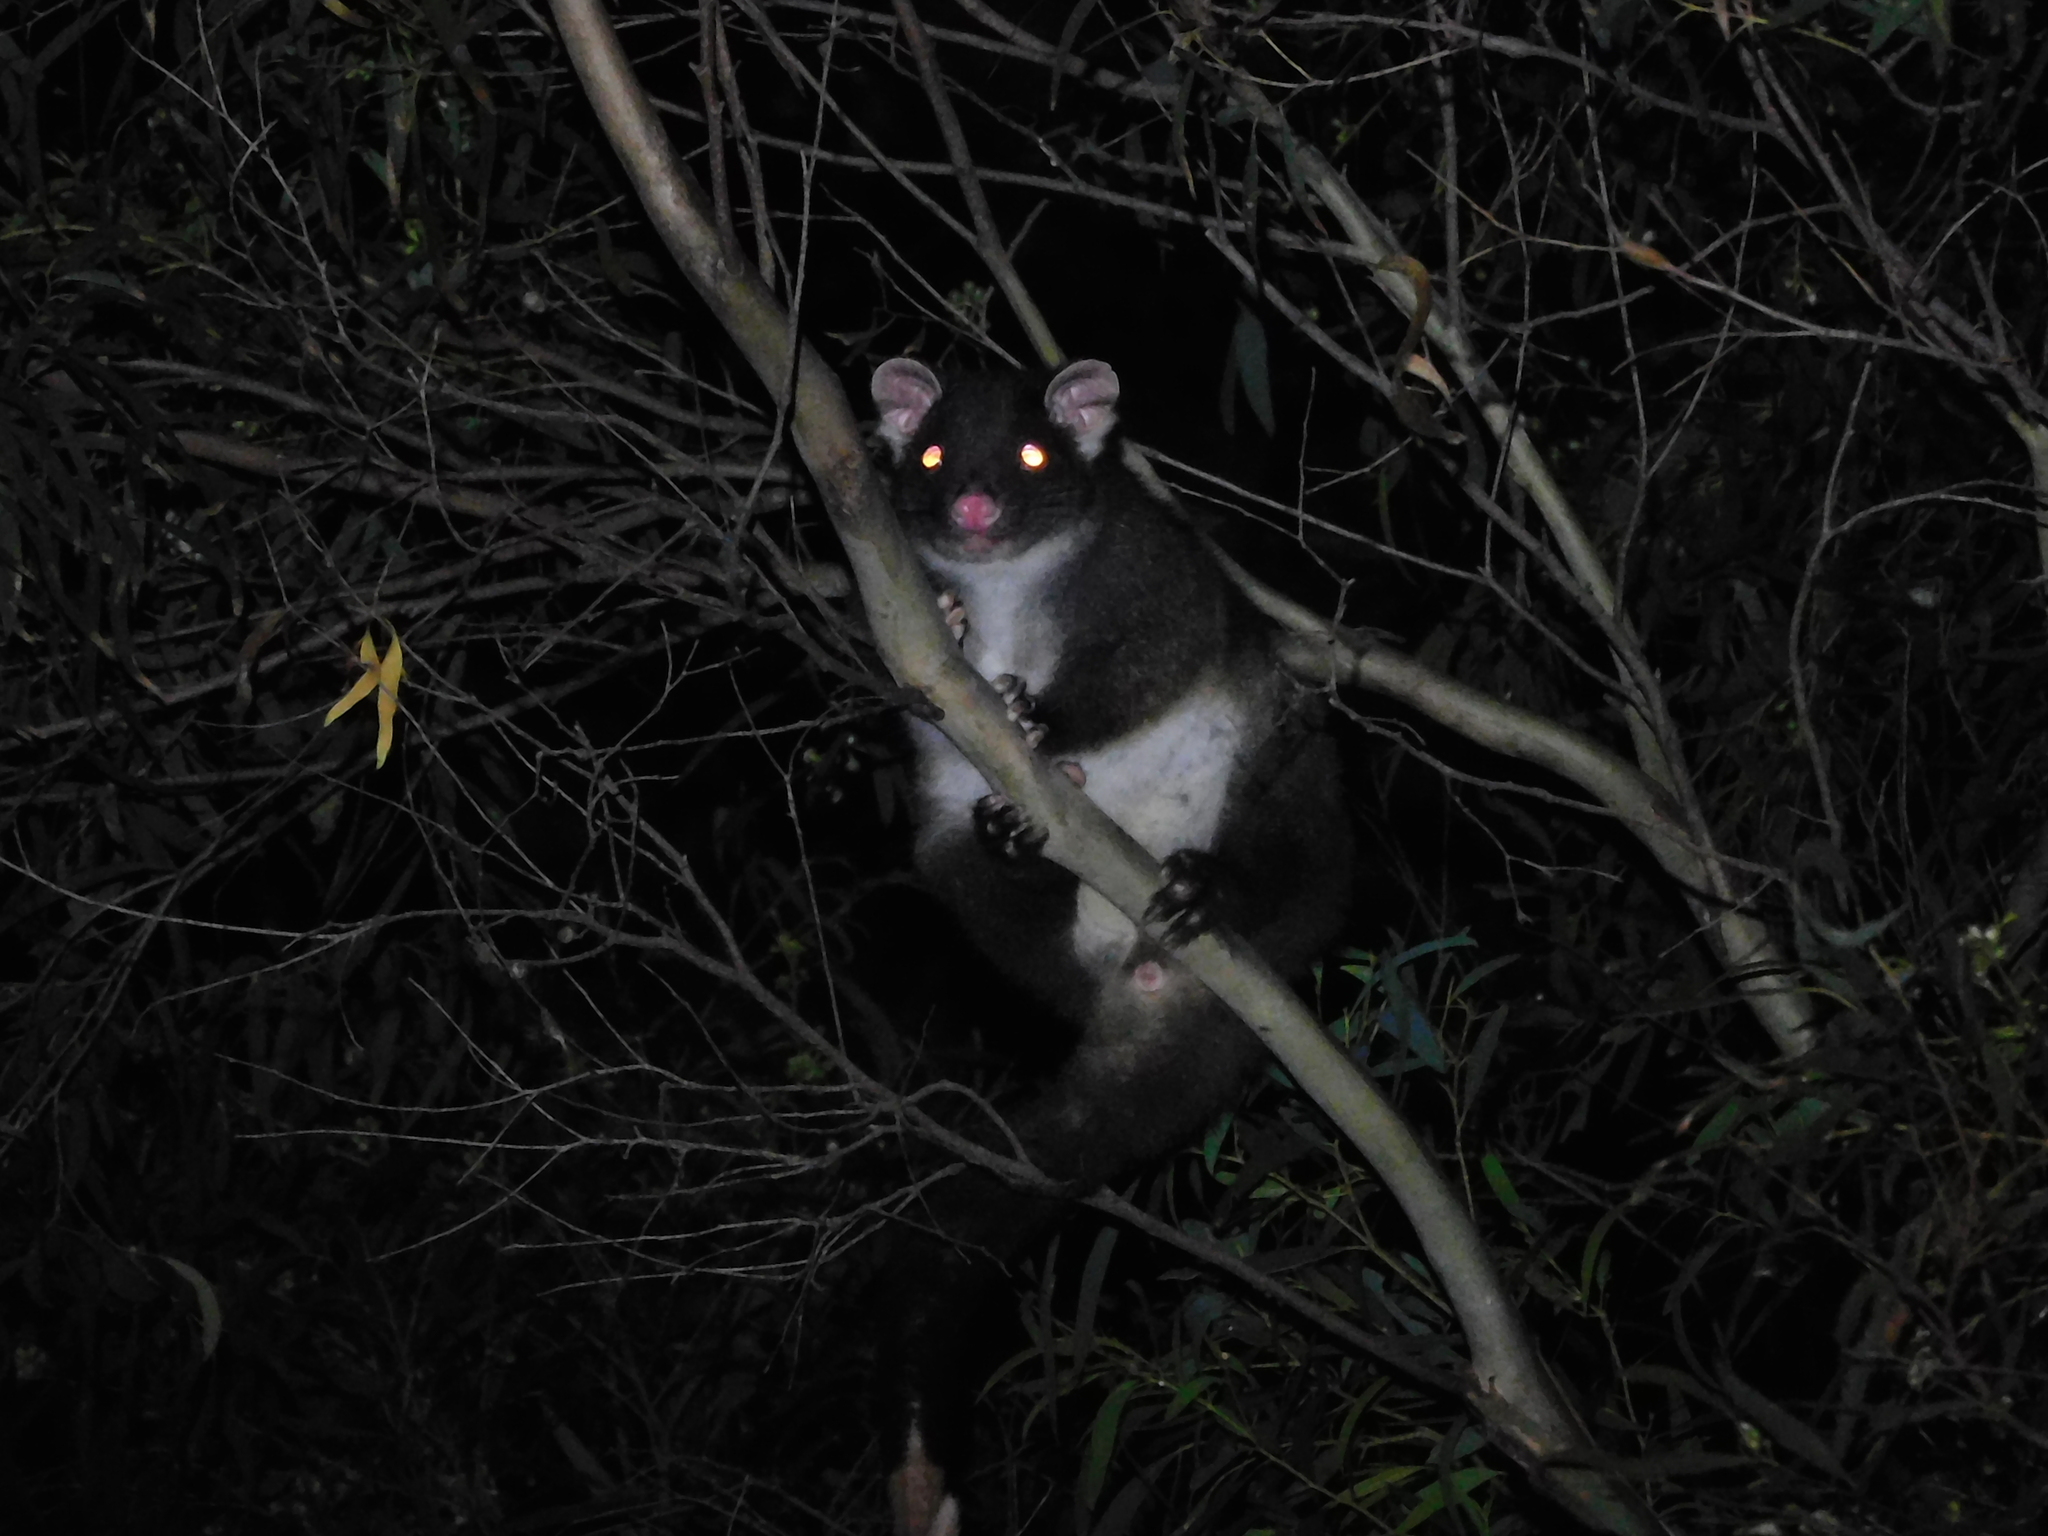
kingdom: Animalia
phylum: Chordata
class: Mammalia
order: Diprotodontia
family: Pseudocheiridae
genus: Pseudocheirus
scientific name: Pseudocheirus peregrinus
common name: Common ringtail possum
